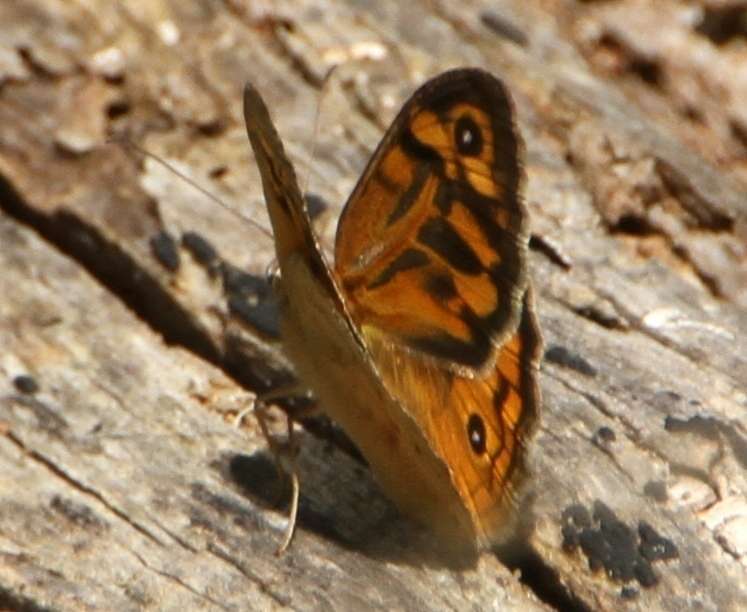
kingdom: Animalia
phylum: Arthropoda
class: Insecta
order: Lepidoptera
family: Nymphalidae
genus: Heteronympha
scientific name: Heteronympha merope
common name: Common brown
